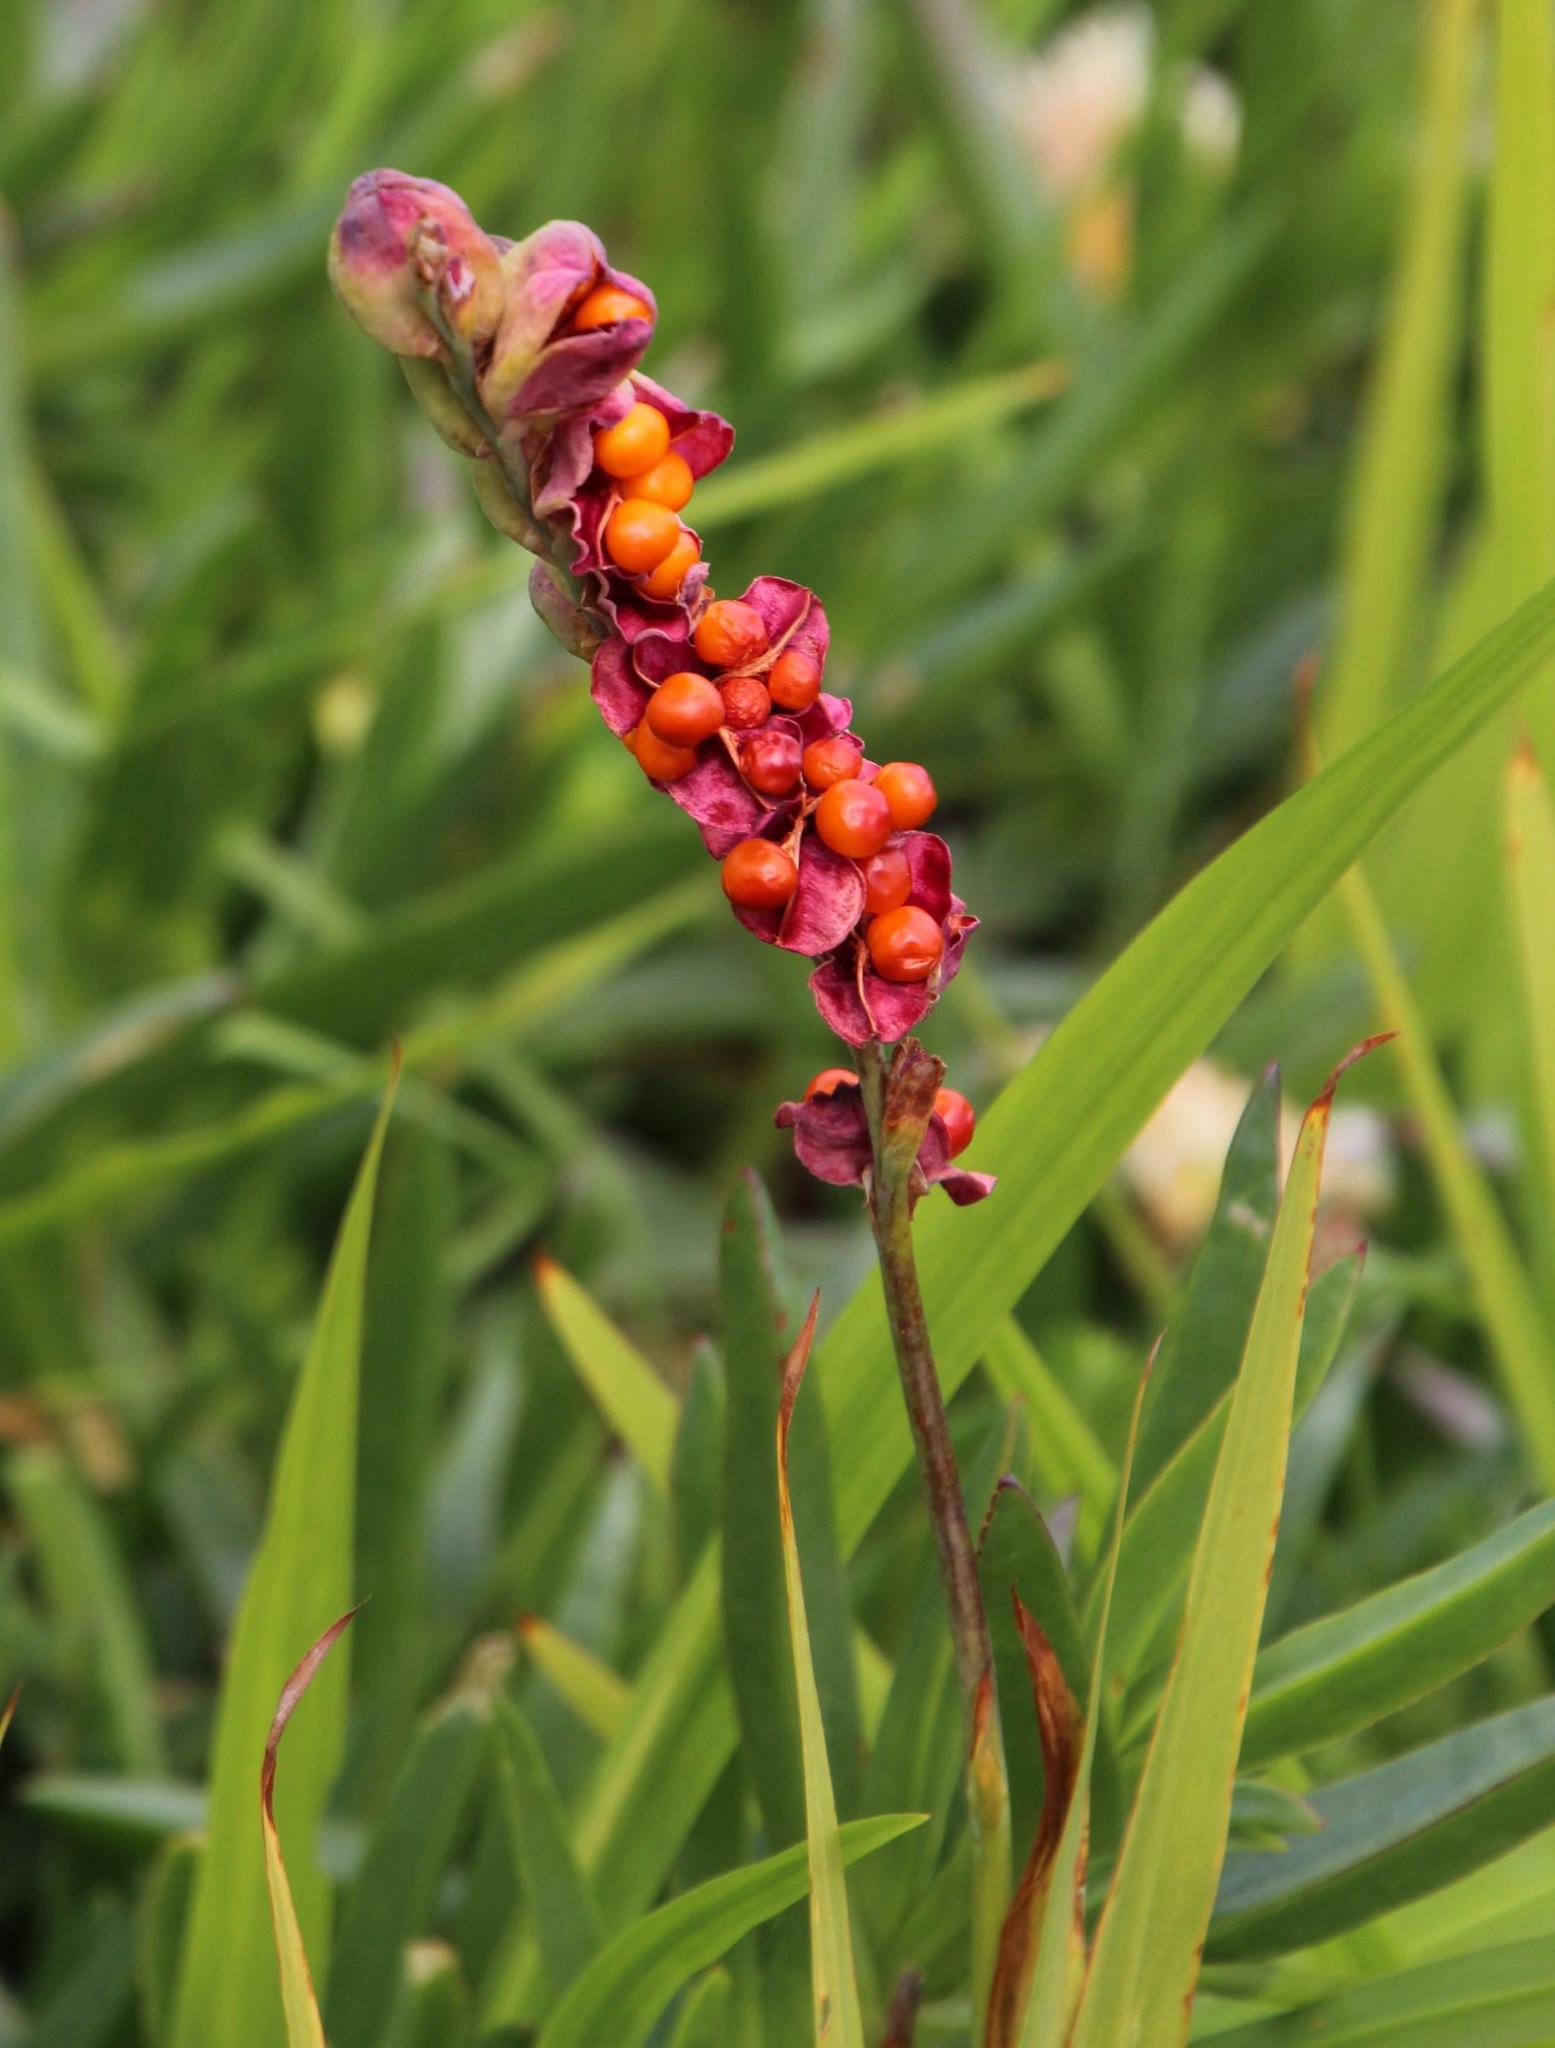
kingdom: Plantae
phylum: Tracheophyta
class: Liliopsida
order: Asparagales
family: Iridaceae
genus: Chasmanthe
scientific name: Chasmanthe aethiopica
